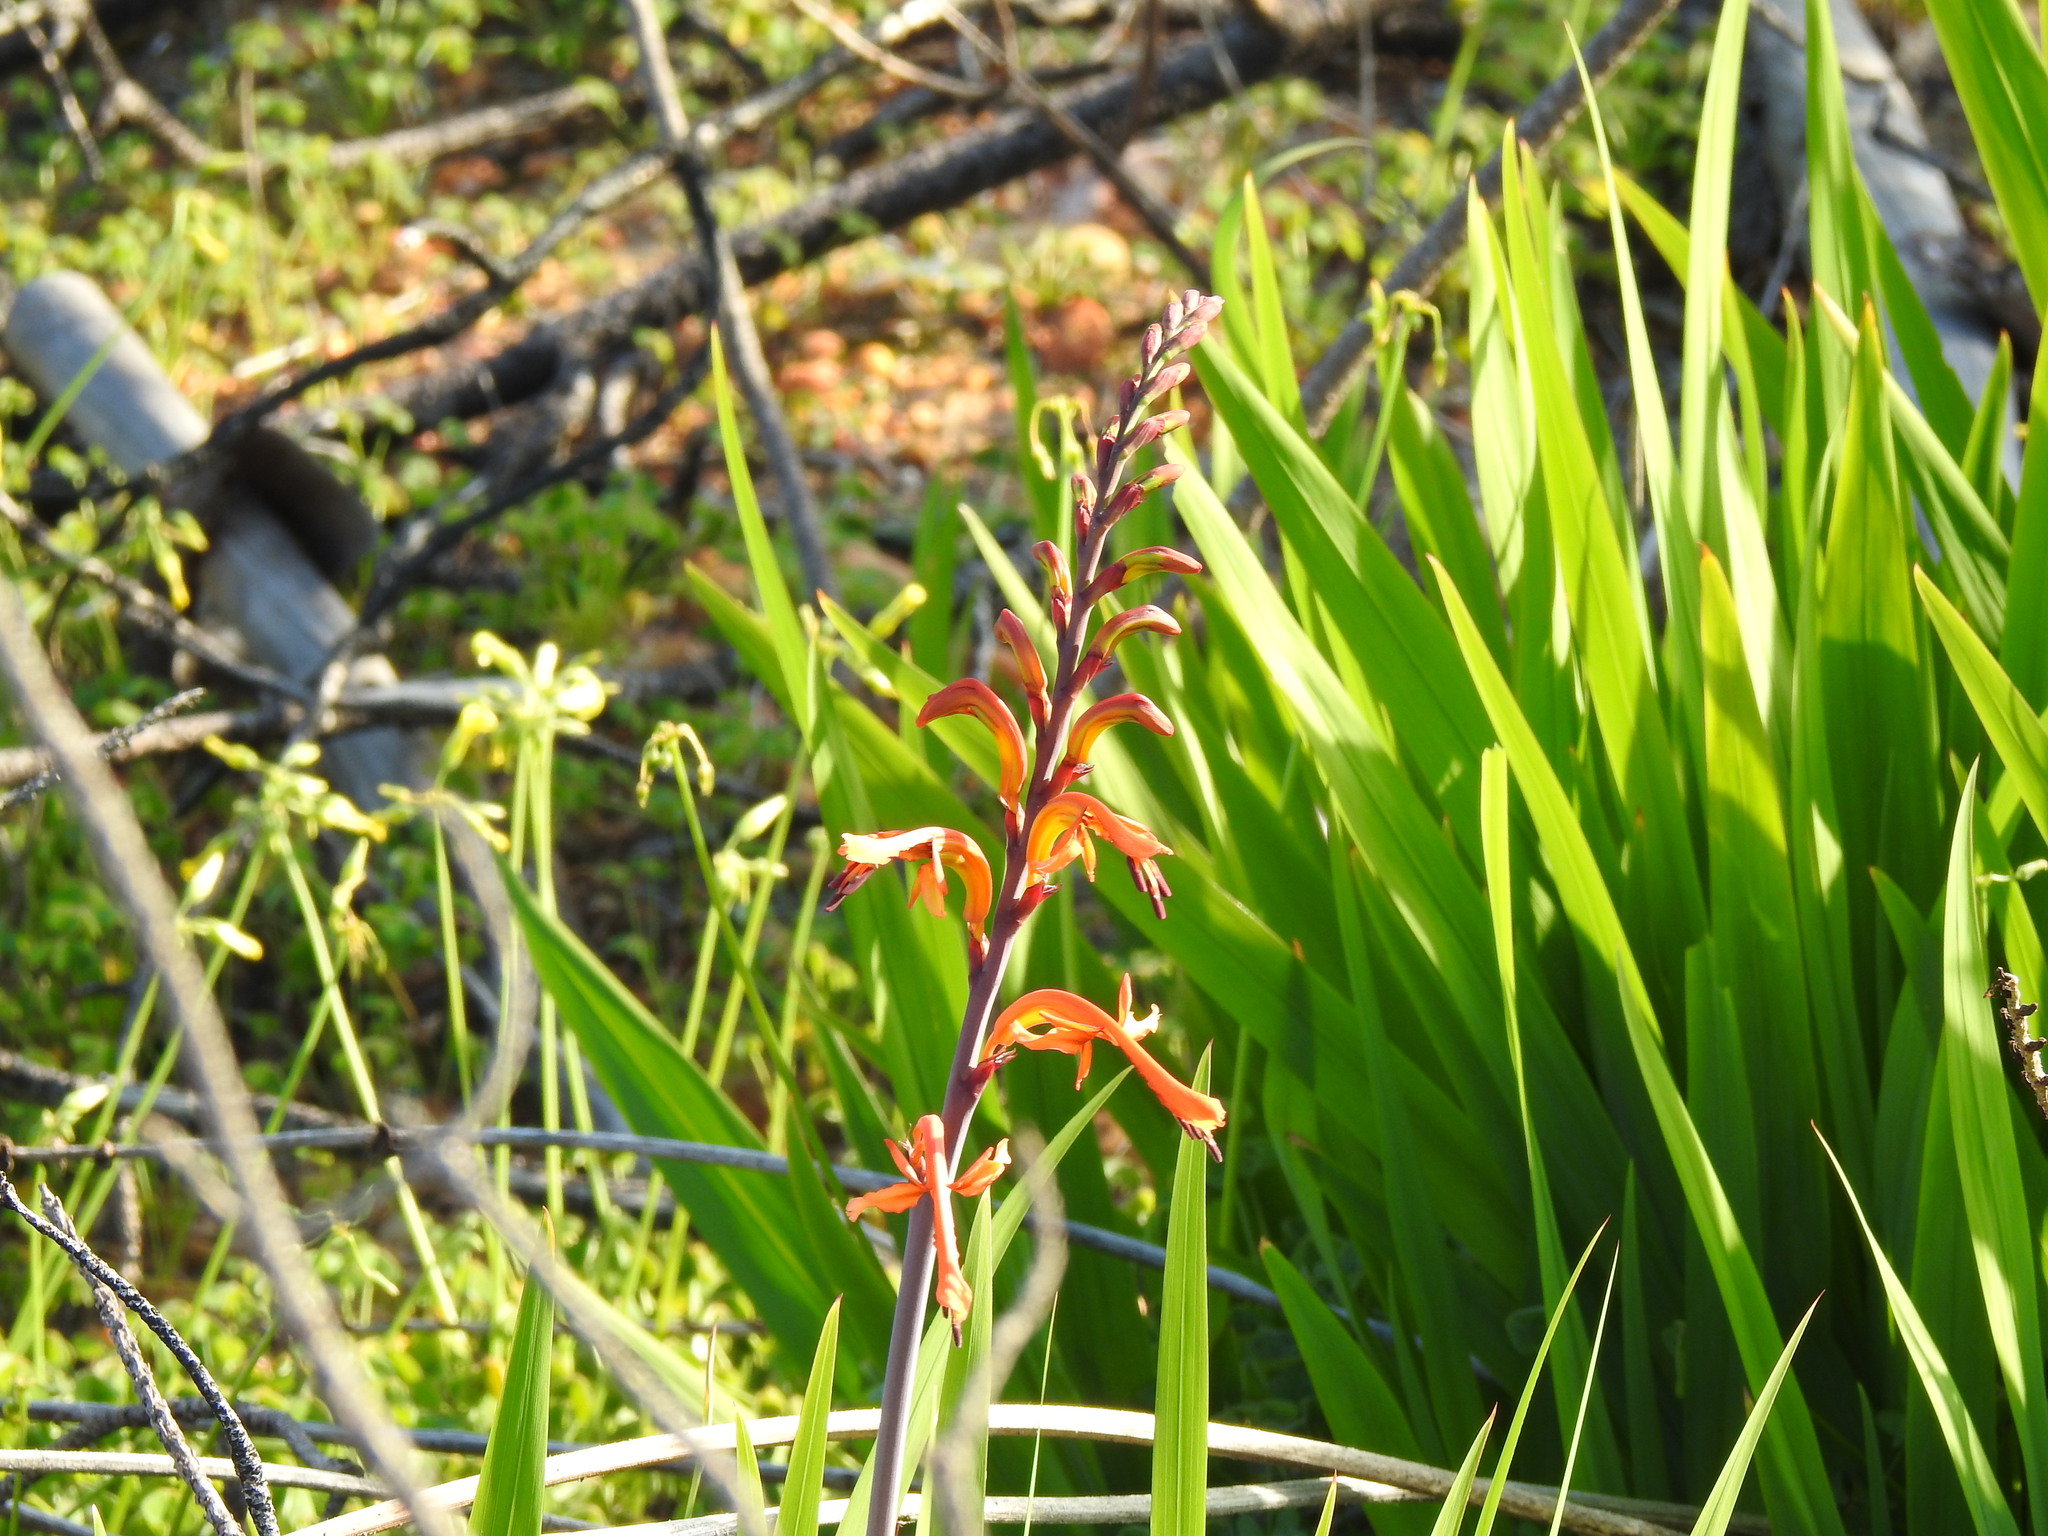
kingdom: Plantae
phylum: Tracheophyta
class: Liliopsida
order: Asparagales
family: Iridaceae
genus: Chasmanthe
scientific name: Chasmanthe floribunda
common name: African cornflag
